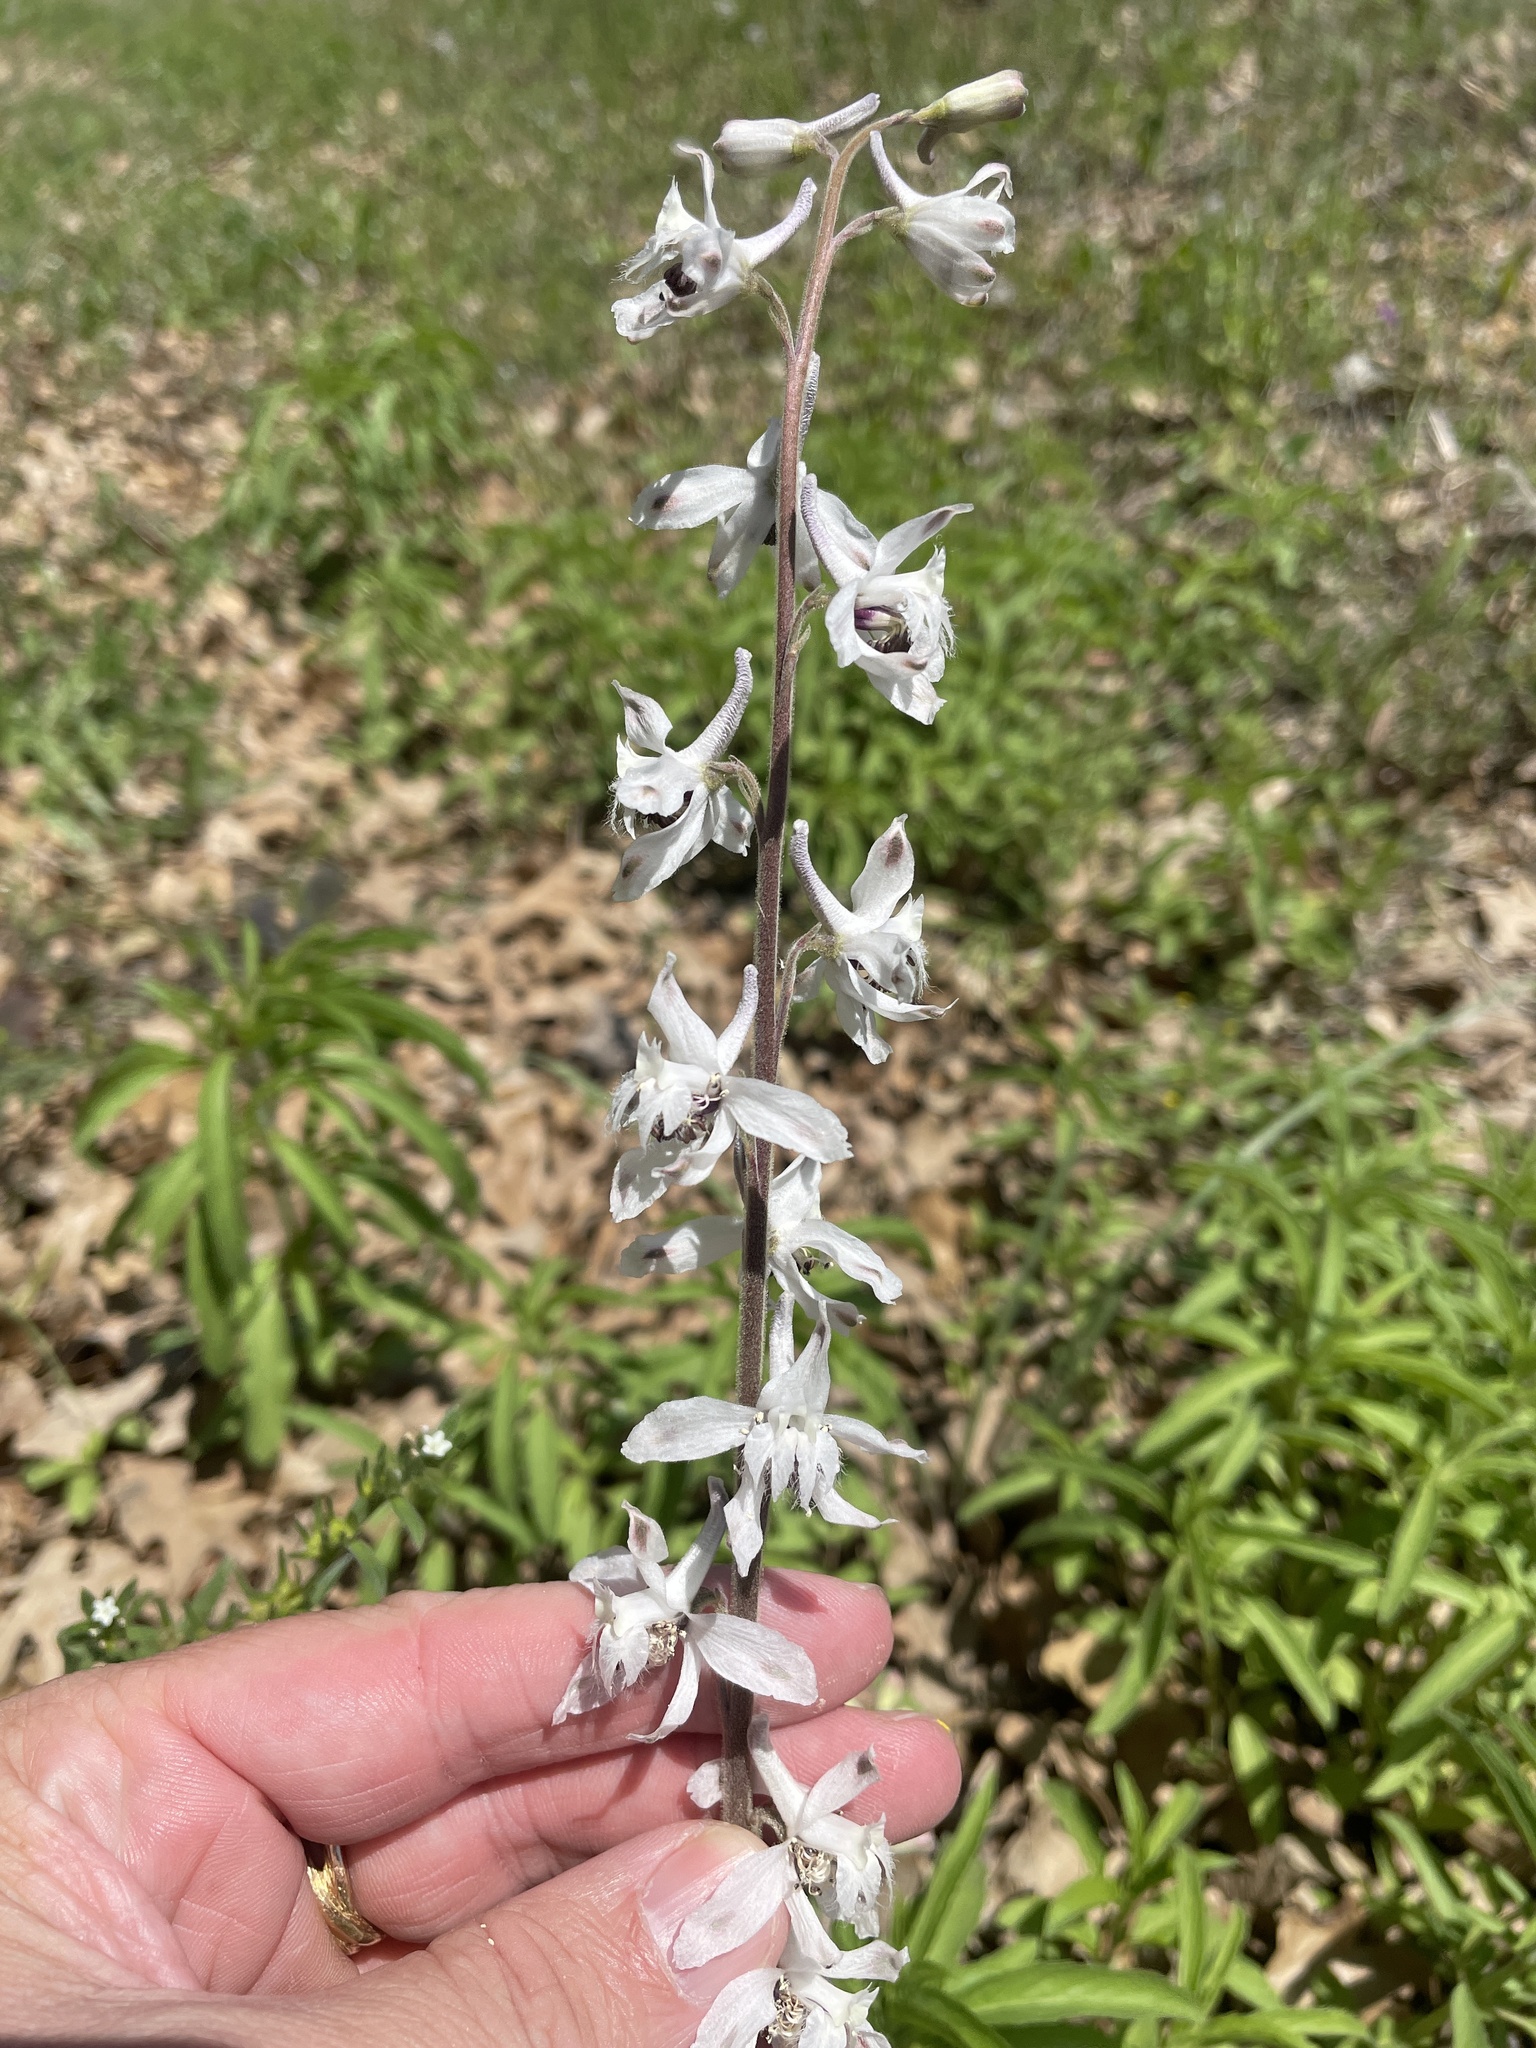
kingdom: Plantae
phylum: Tracheophyta
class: Magnoliopsida
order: Ranunculales
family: Ranunculaceae
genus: Delphinium
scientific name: Delphinium carolinianum
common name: Carolina larkspur
